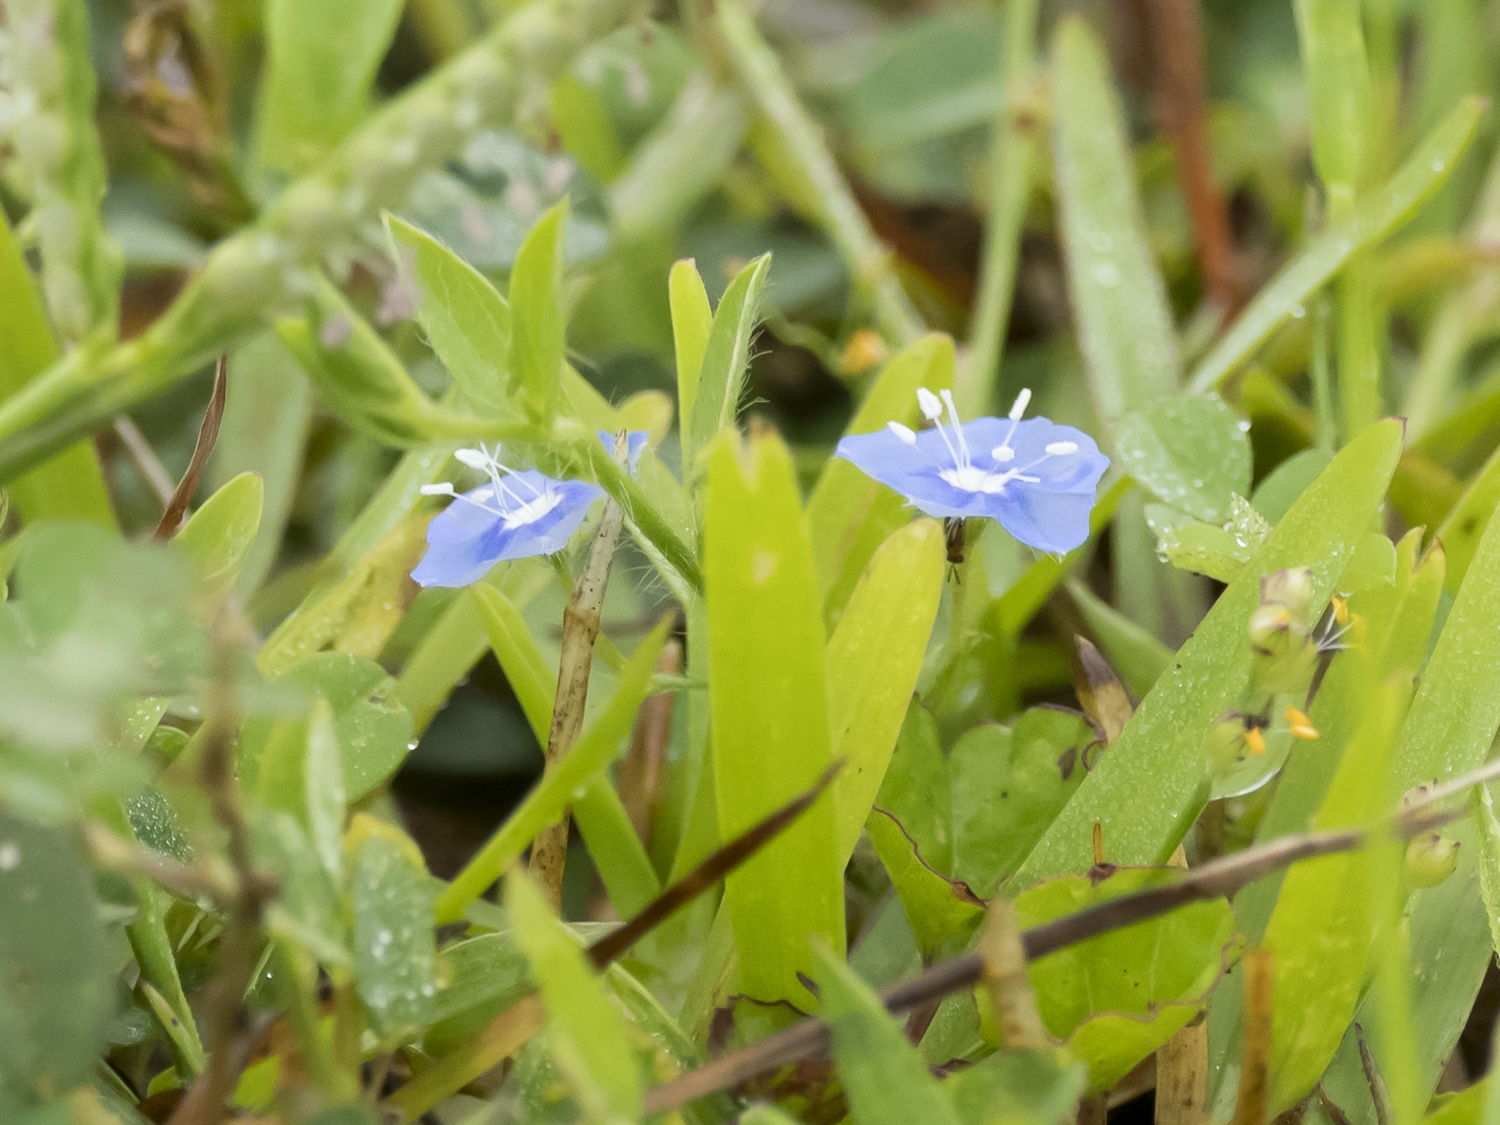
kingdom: Plantae
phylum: Tracheophyta
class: Magnoliopsida
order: Solanales
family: Convolvulaceae
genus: Evolvulus
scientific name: Evolvulus alsinoides
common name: Slender dwarf morning-glory
